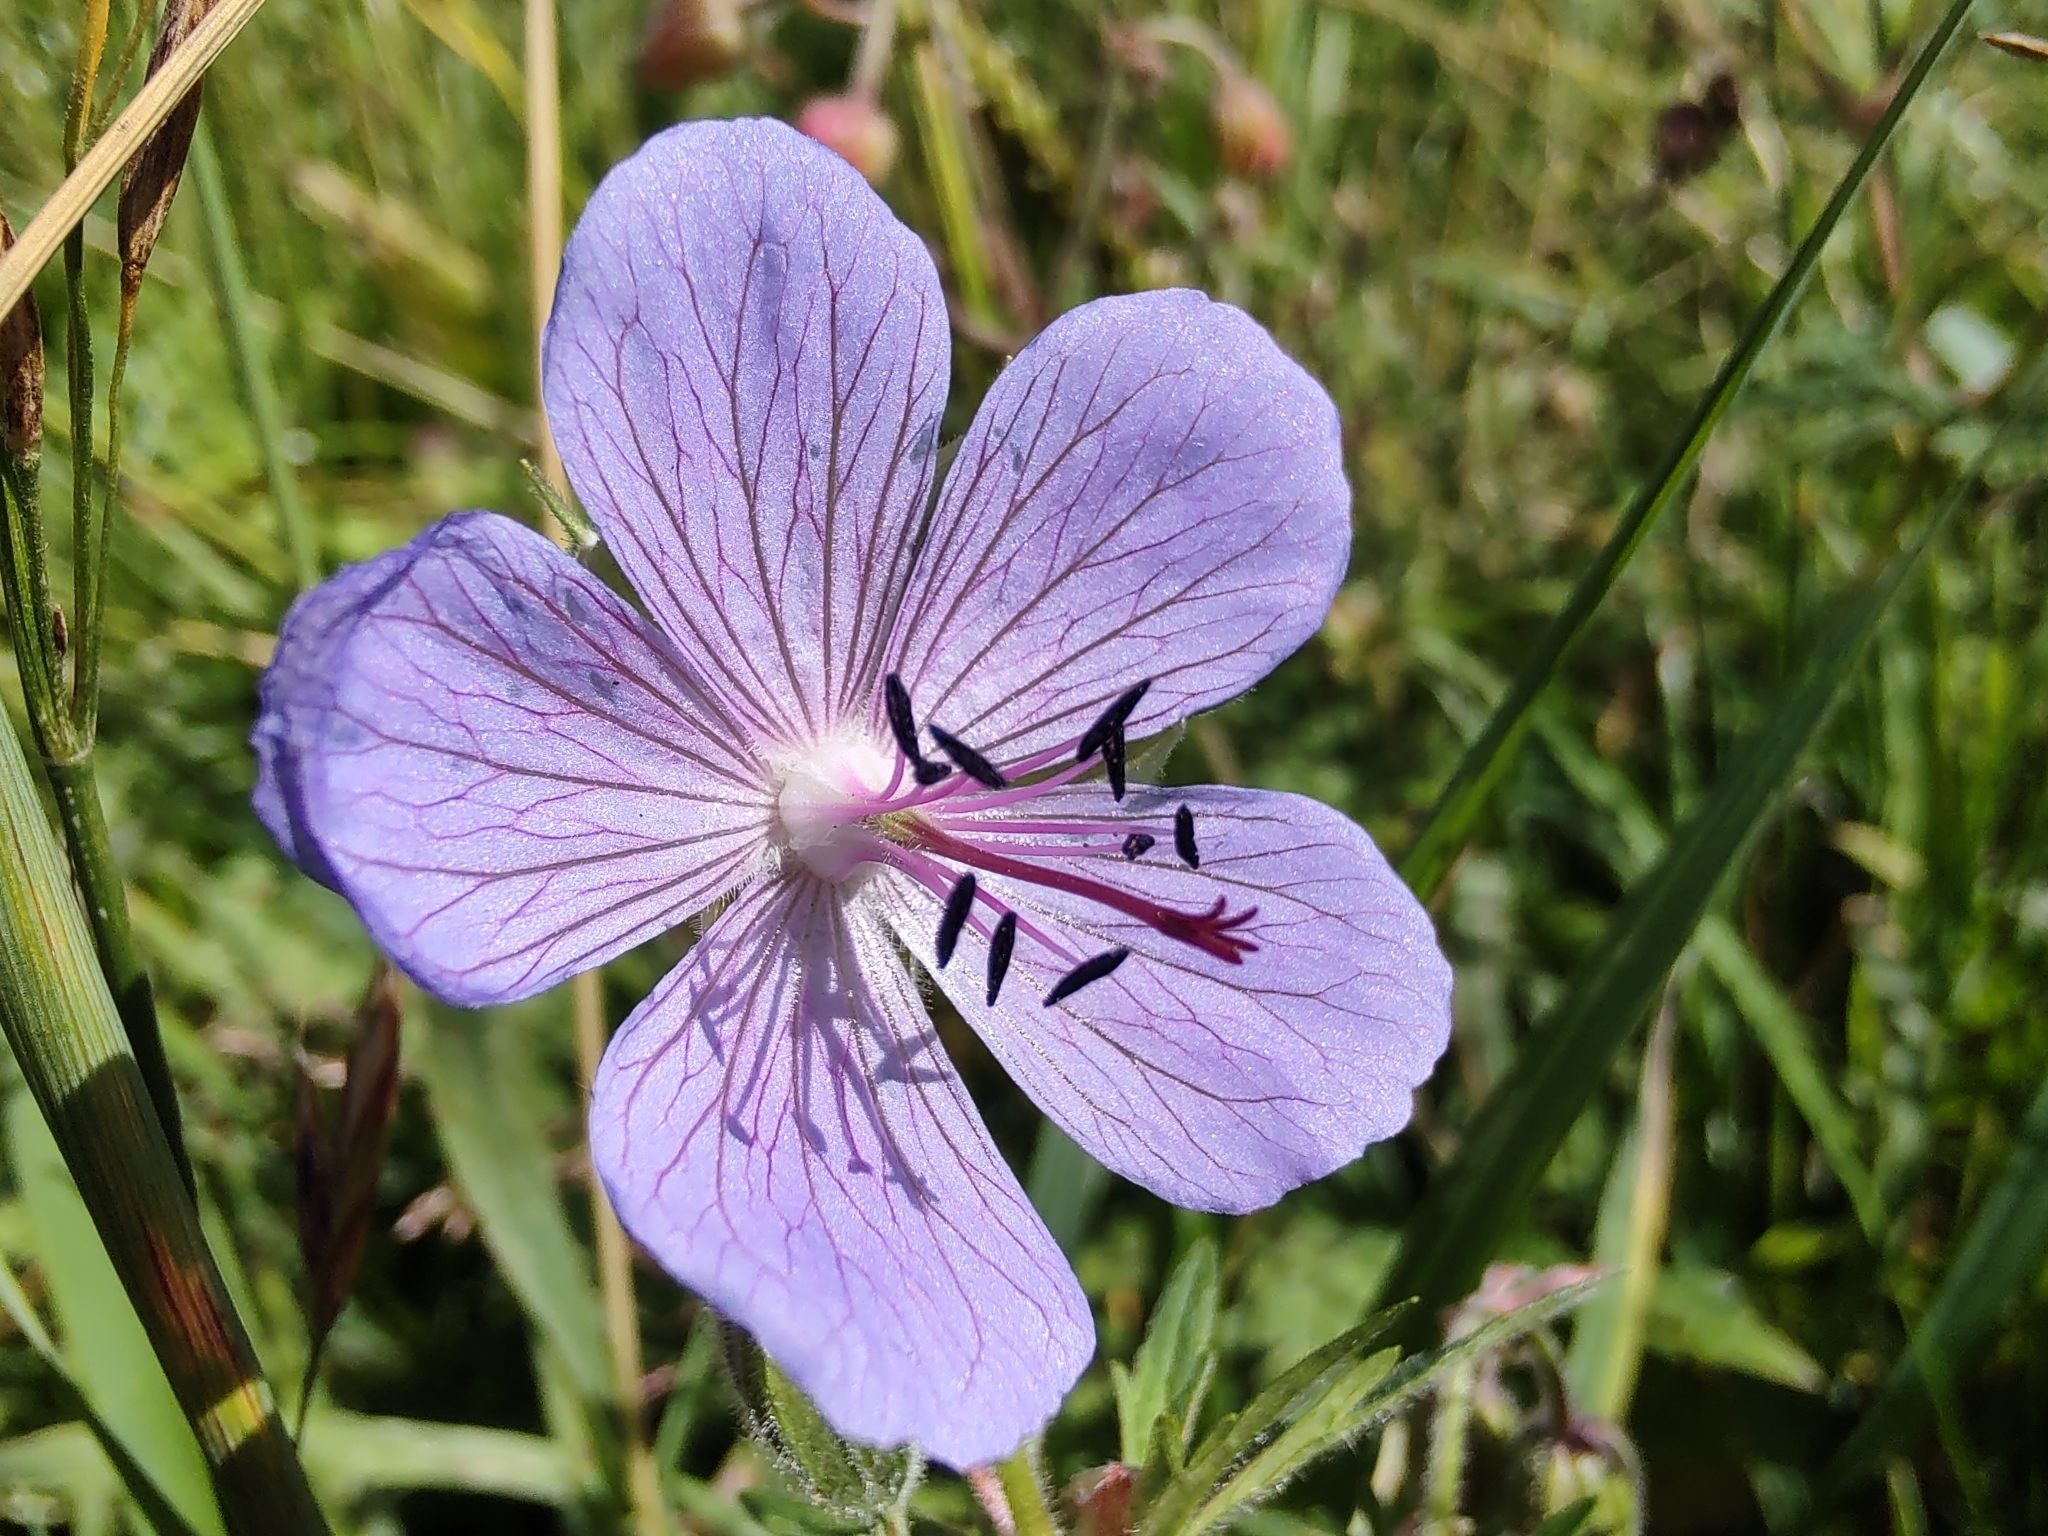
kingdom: Plantae
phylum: Tracheophyta
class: Magnoliopsida
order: Geraniales
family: Geraniaceae
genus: Geranium
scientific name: Geranium pratense
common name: Meadow crane's-bill
